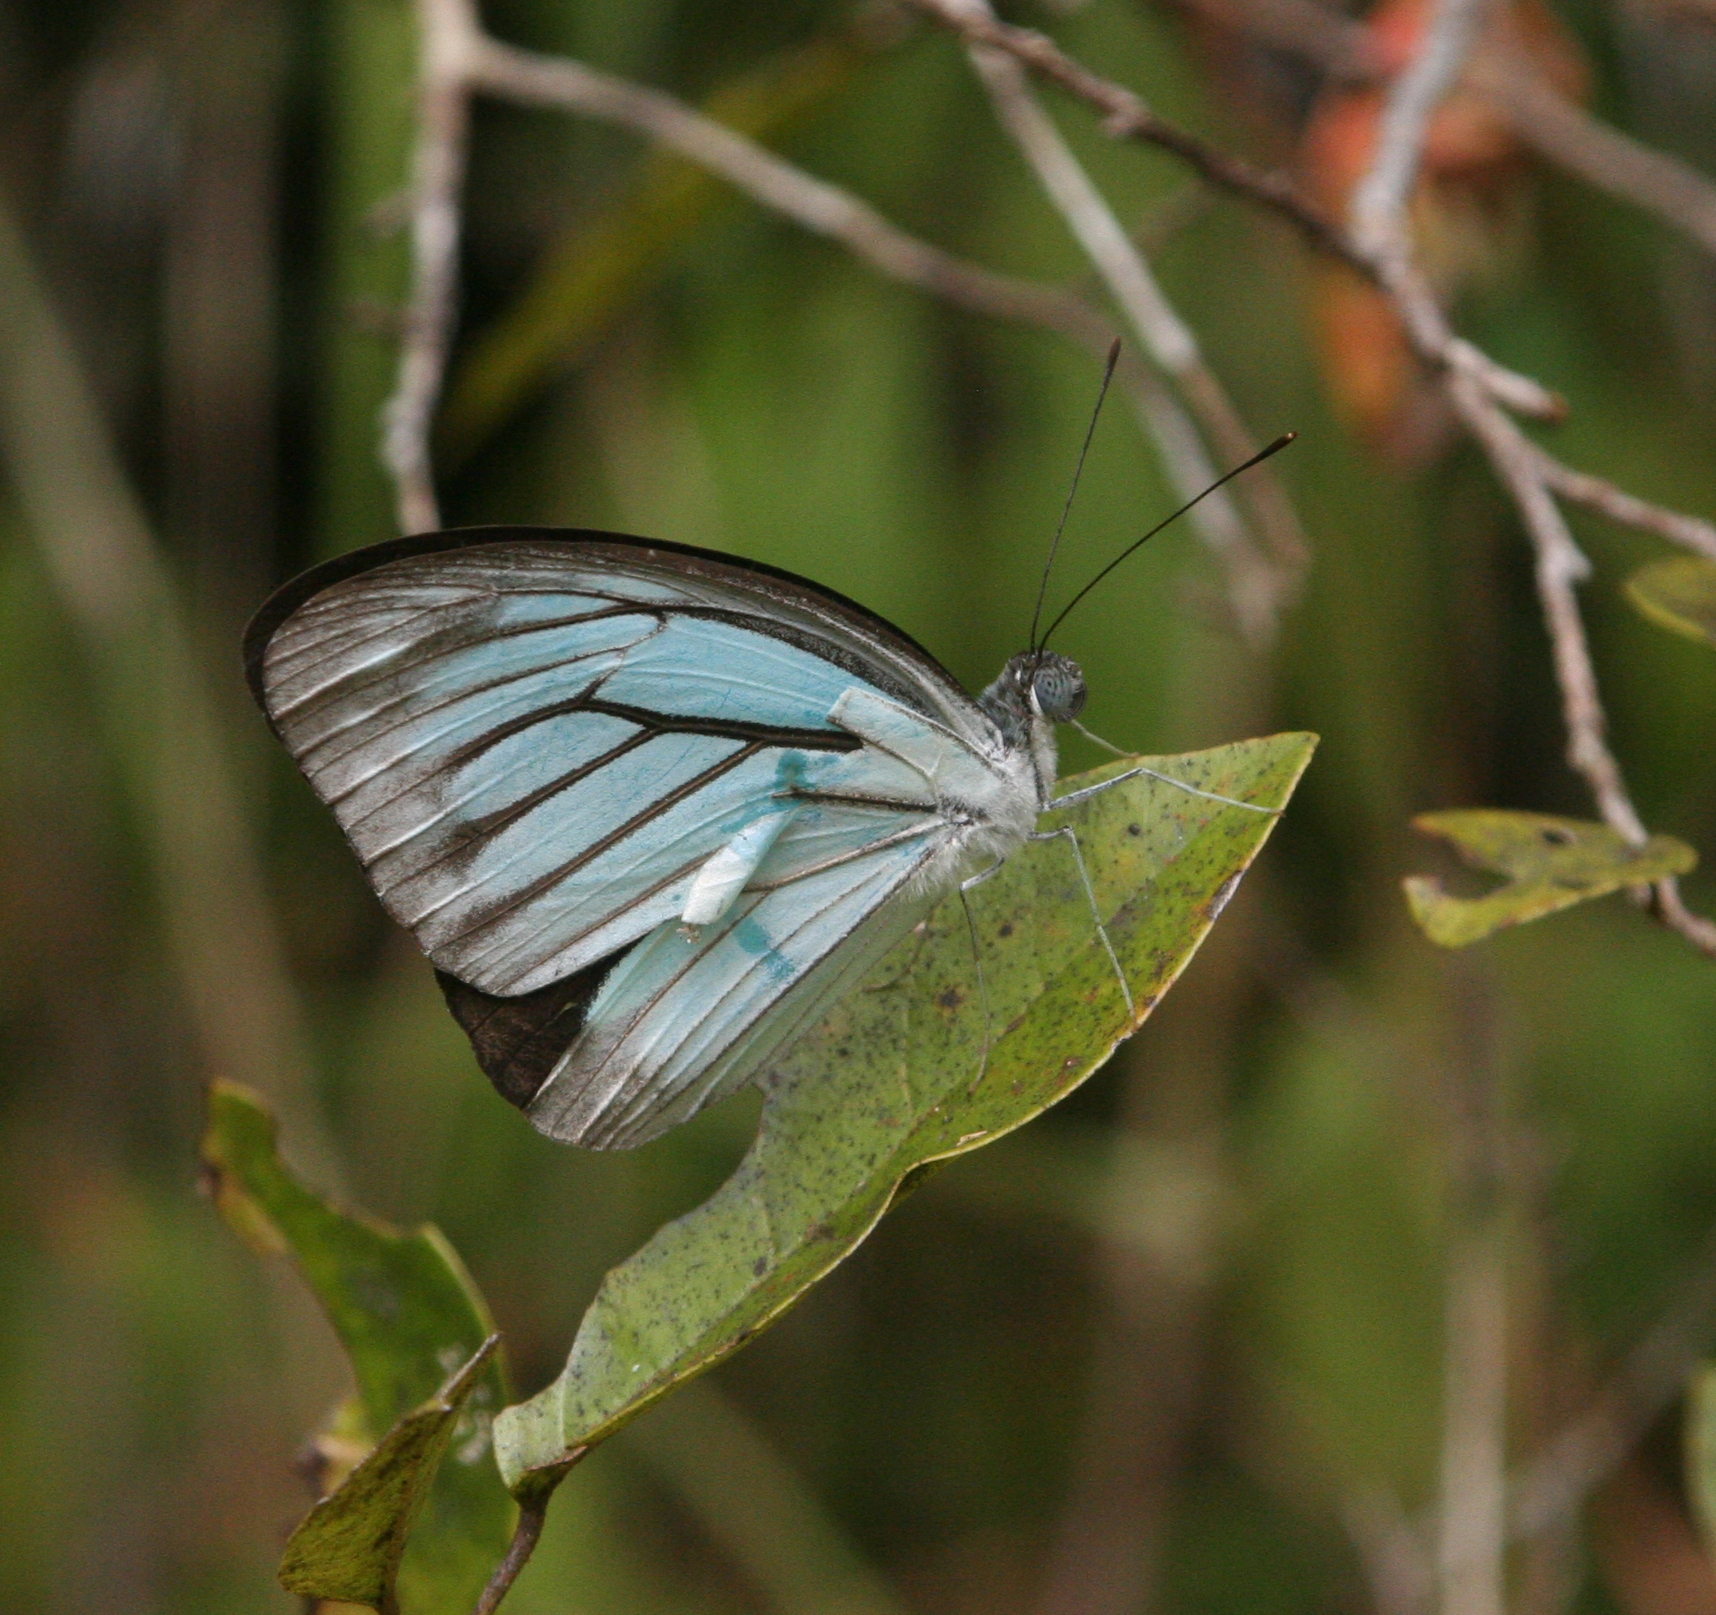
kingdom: Animalia
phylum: Arthropoda
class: Insecta
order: Lepidoptera
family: Pieridae
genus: Pareronia
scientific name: Pareronia hippia
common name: Indian wanderer
